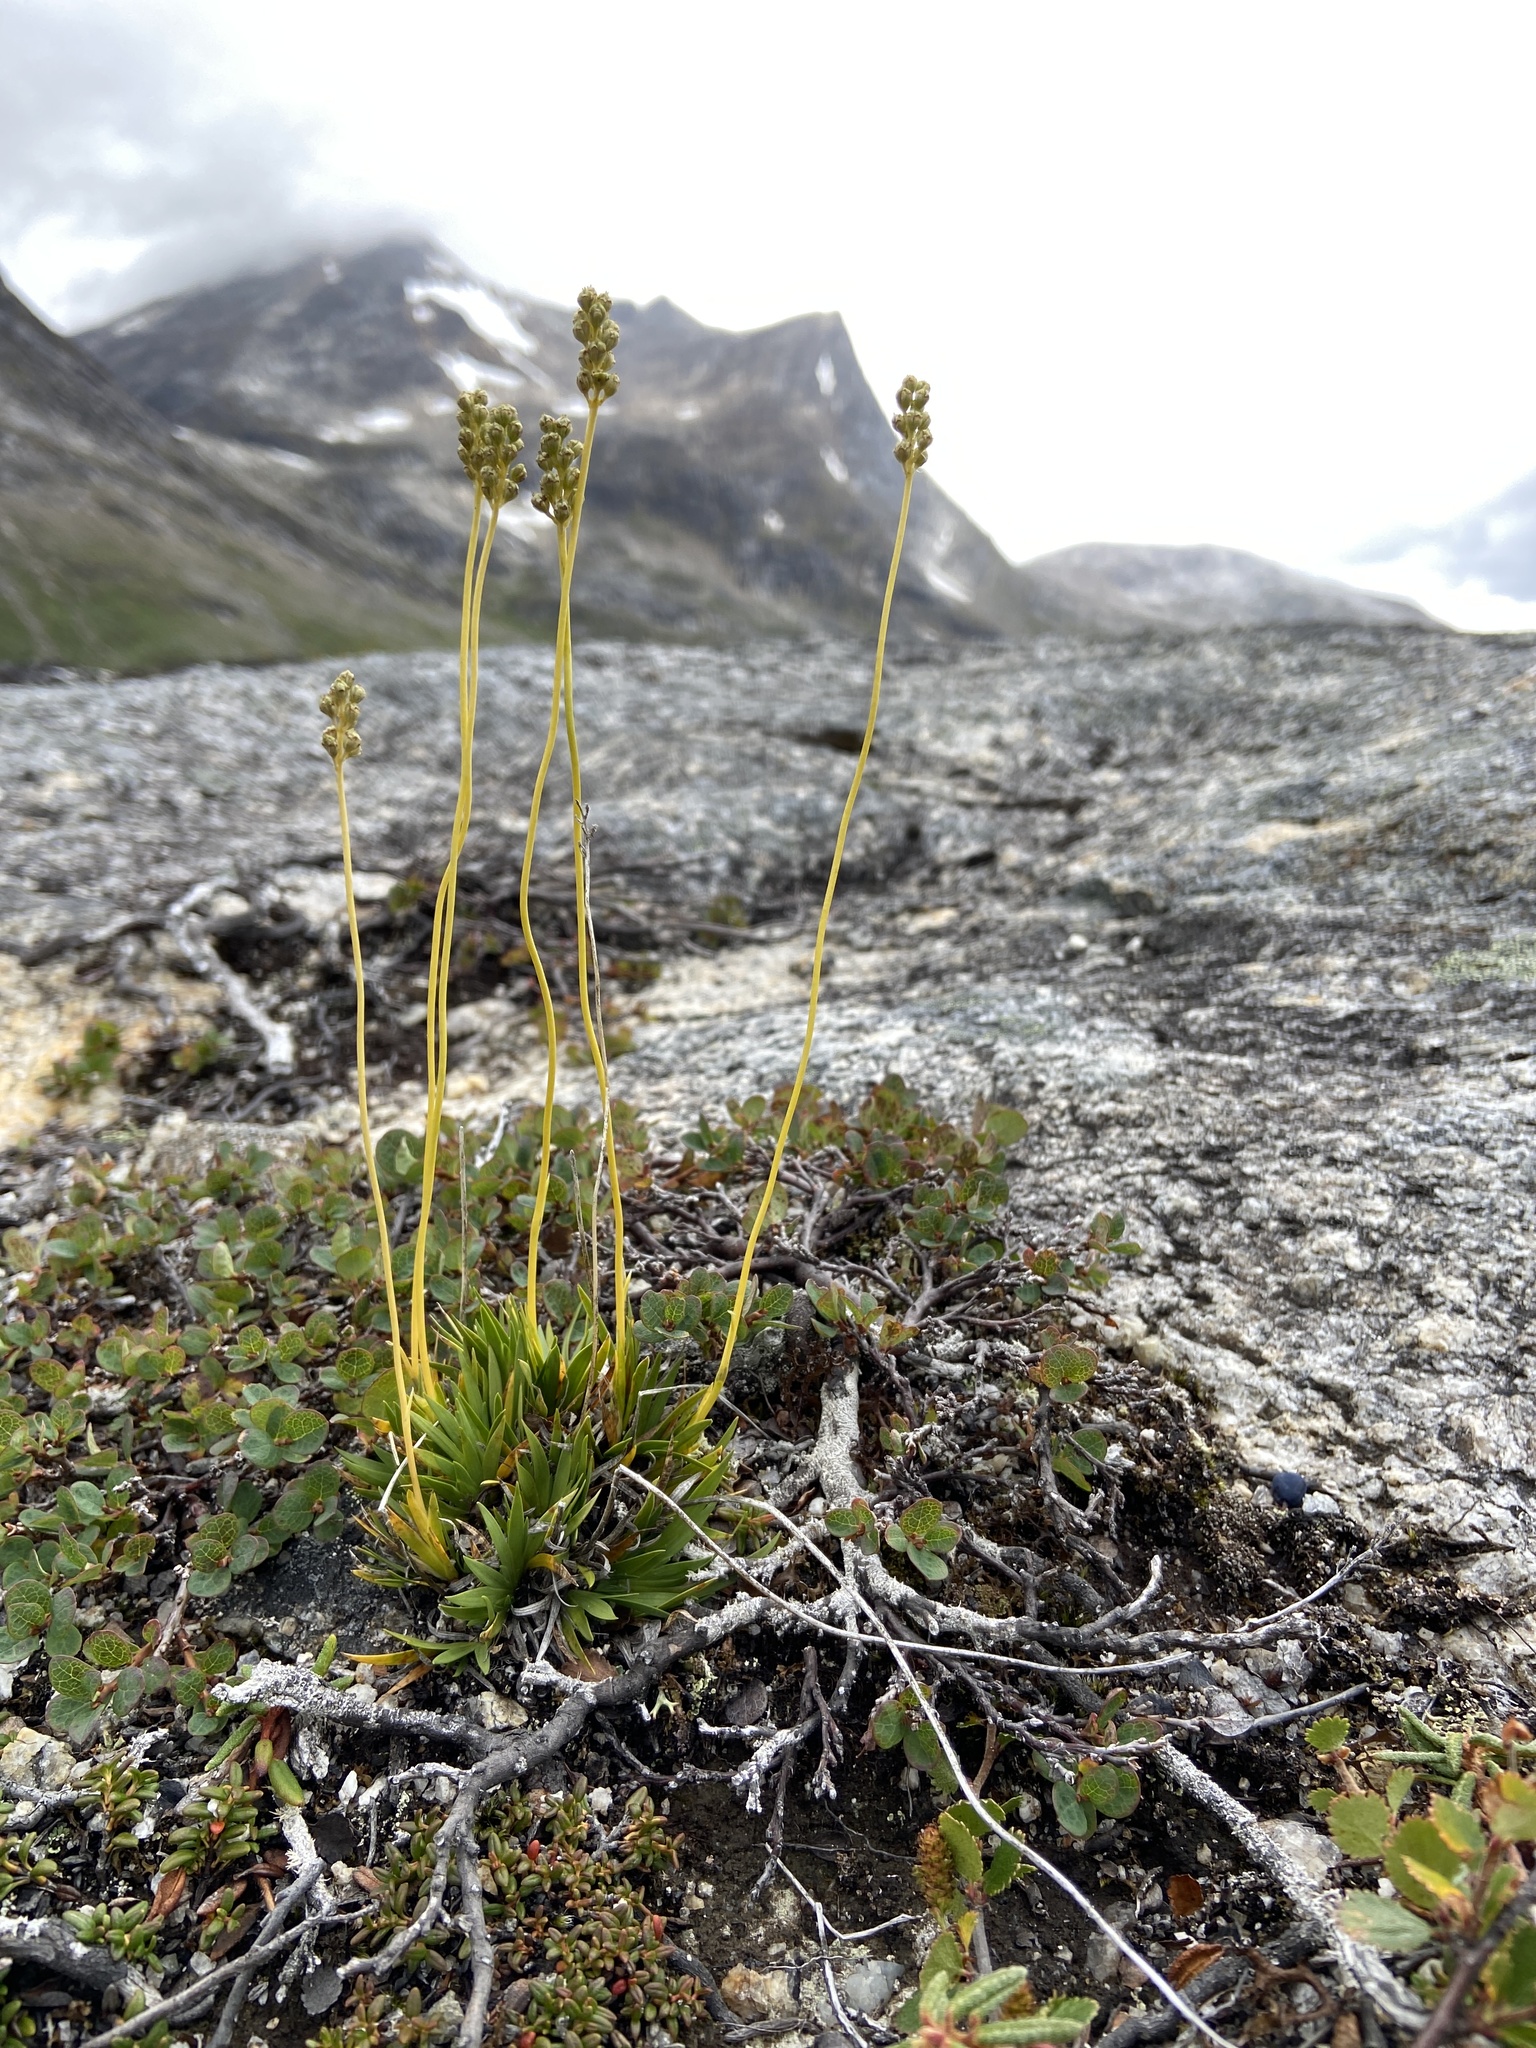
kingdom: Plantae
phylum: Tracheophyta
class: Liliopsida
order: Alismatales
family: Tofieldiaceae
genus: Tofieldia
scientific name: Tofieldia pusilla
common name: Scottish false asphodel
